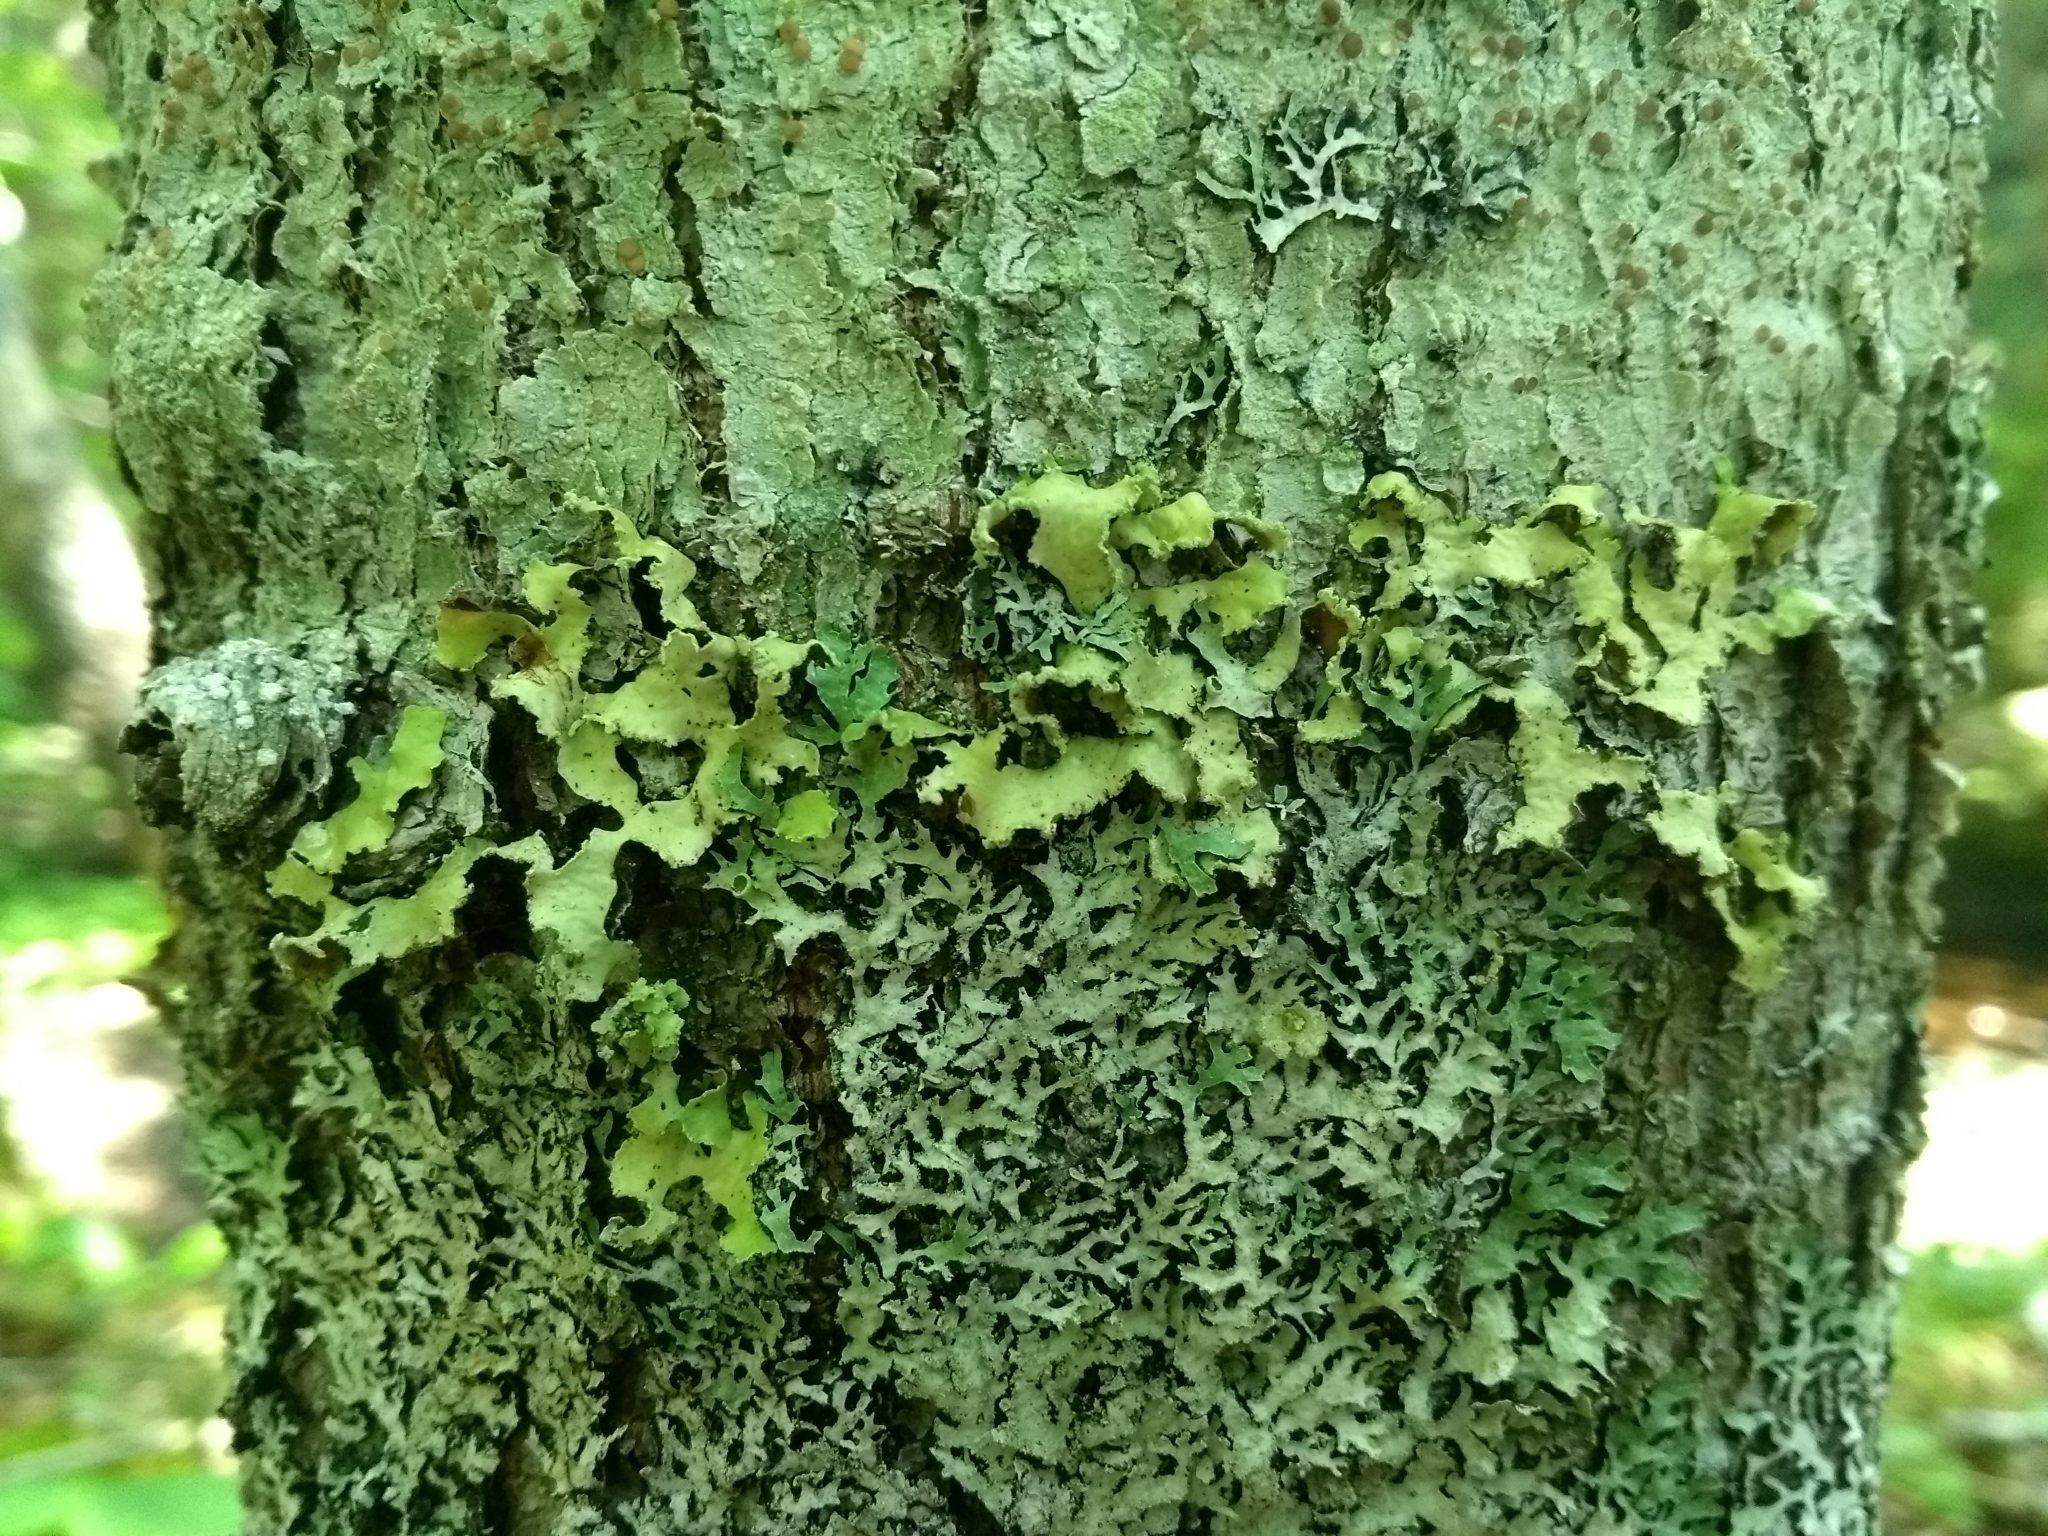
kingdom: Fungi
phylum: Ascomycota
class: Lecanoromycetes
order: Lecanorales
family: Parmeliaceae
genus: Usnocetraria
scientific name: Usnocetraria oakesiana
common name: Yellow ribbon lichen
